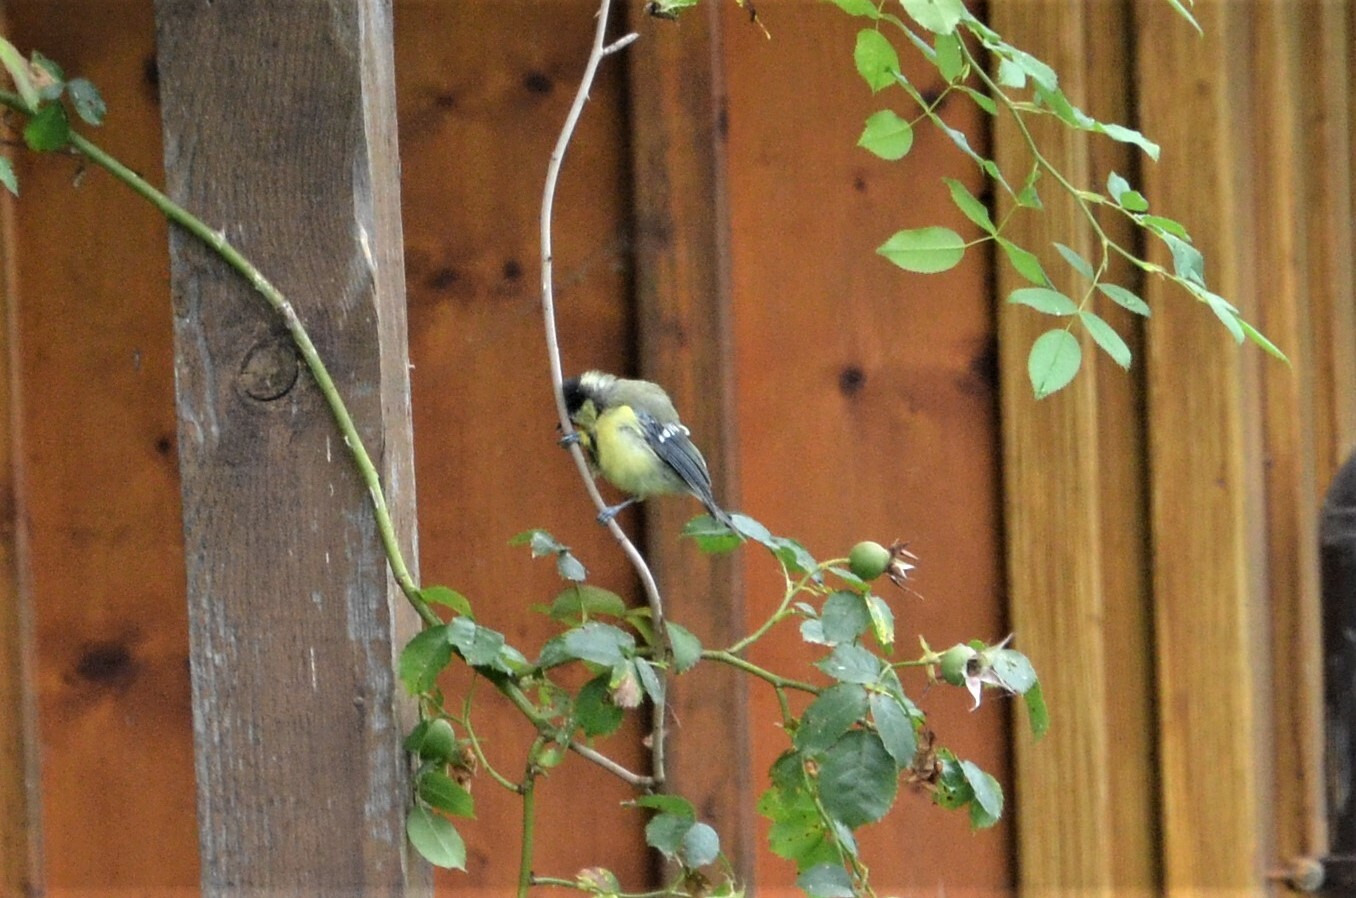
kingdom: Animalia
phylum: Chordata
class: Aves
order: Passeriformes
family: Paridae
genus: Parus
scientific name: Parus major
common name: Great tit
